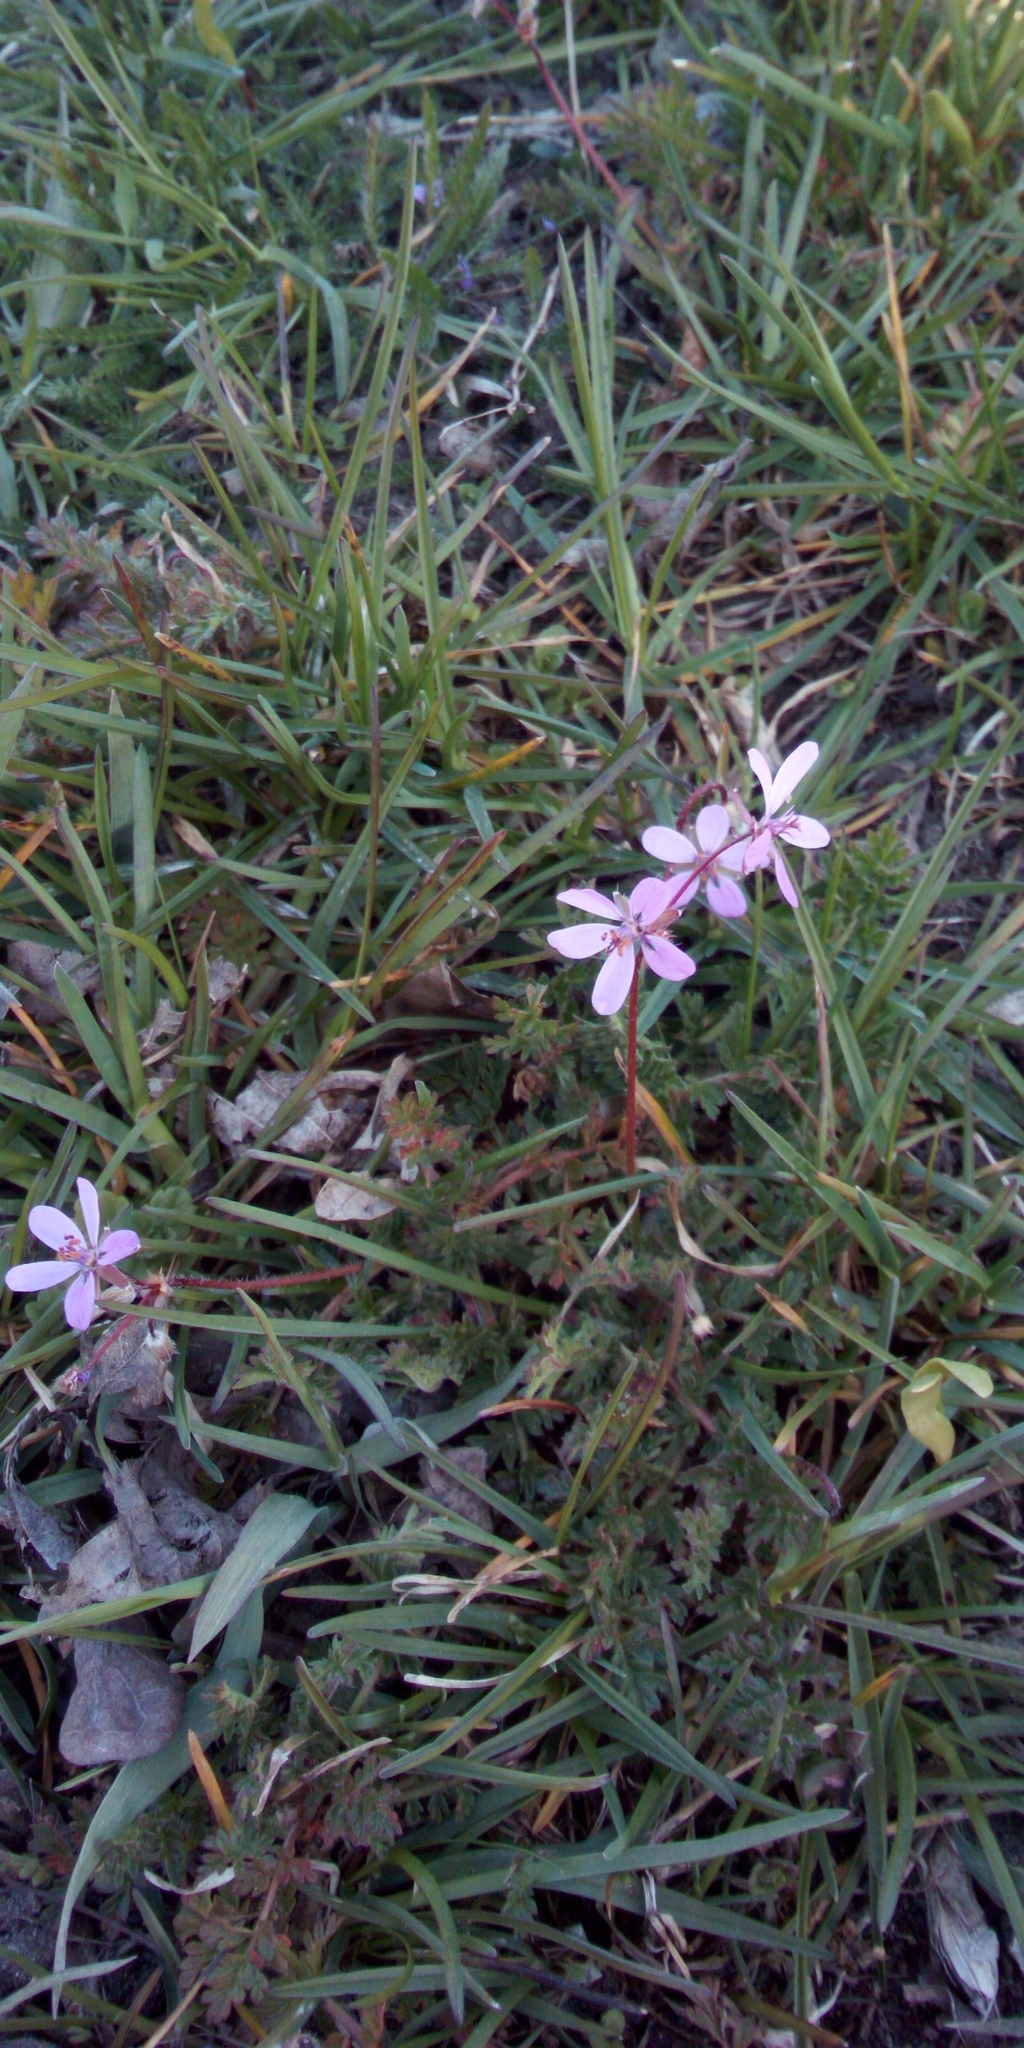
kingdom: Plantae
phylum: Tracheophyta
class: Magnoliopsida
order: Geraniales
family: Geraniaceae
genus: Erodium
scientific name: Erodium cicutarium
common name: Common stork's-bill
